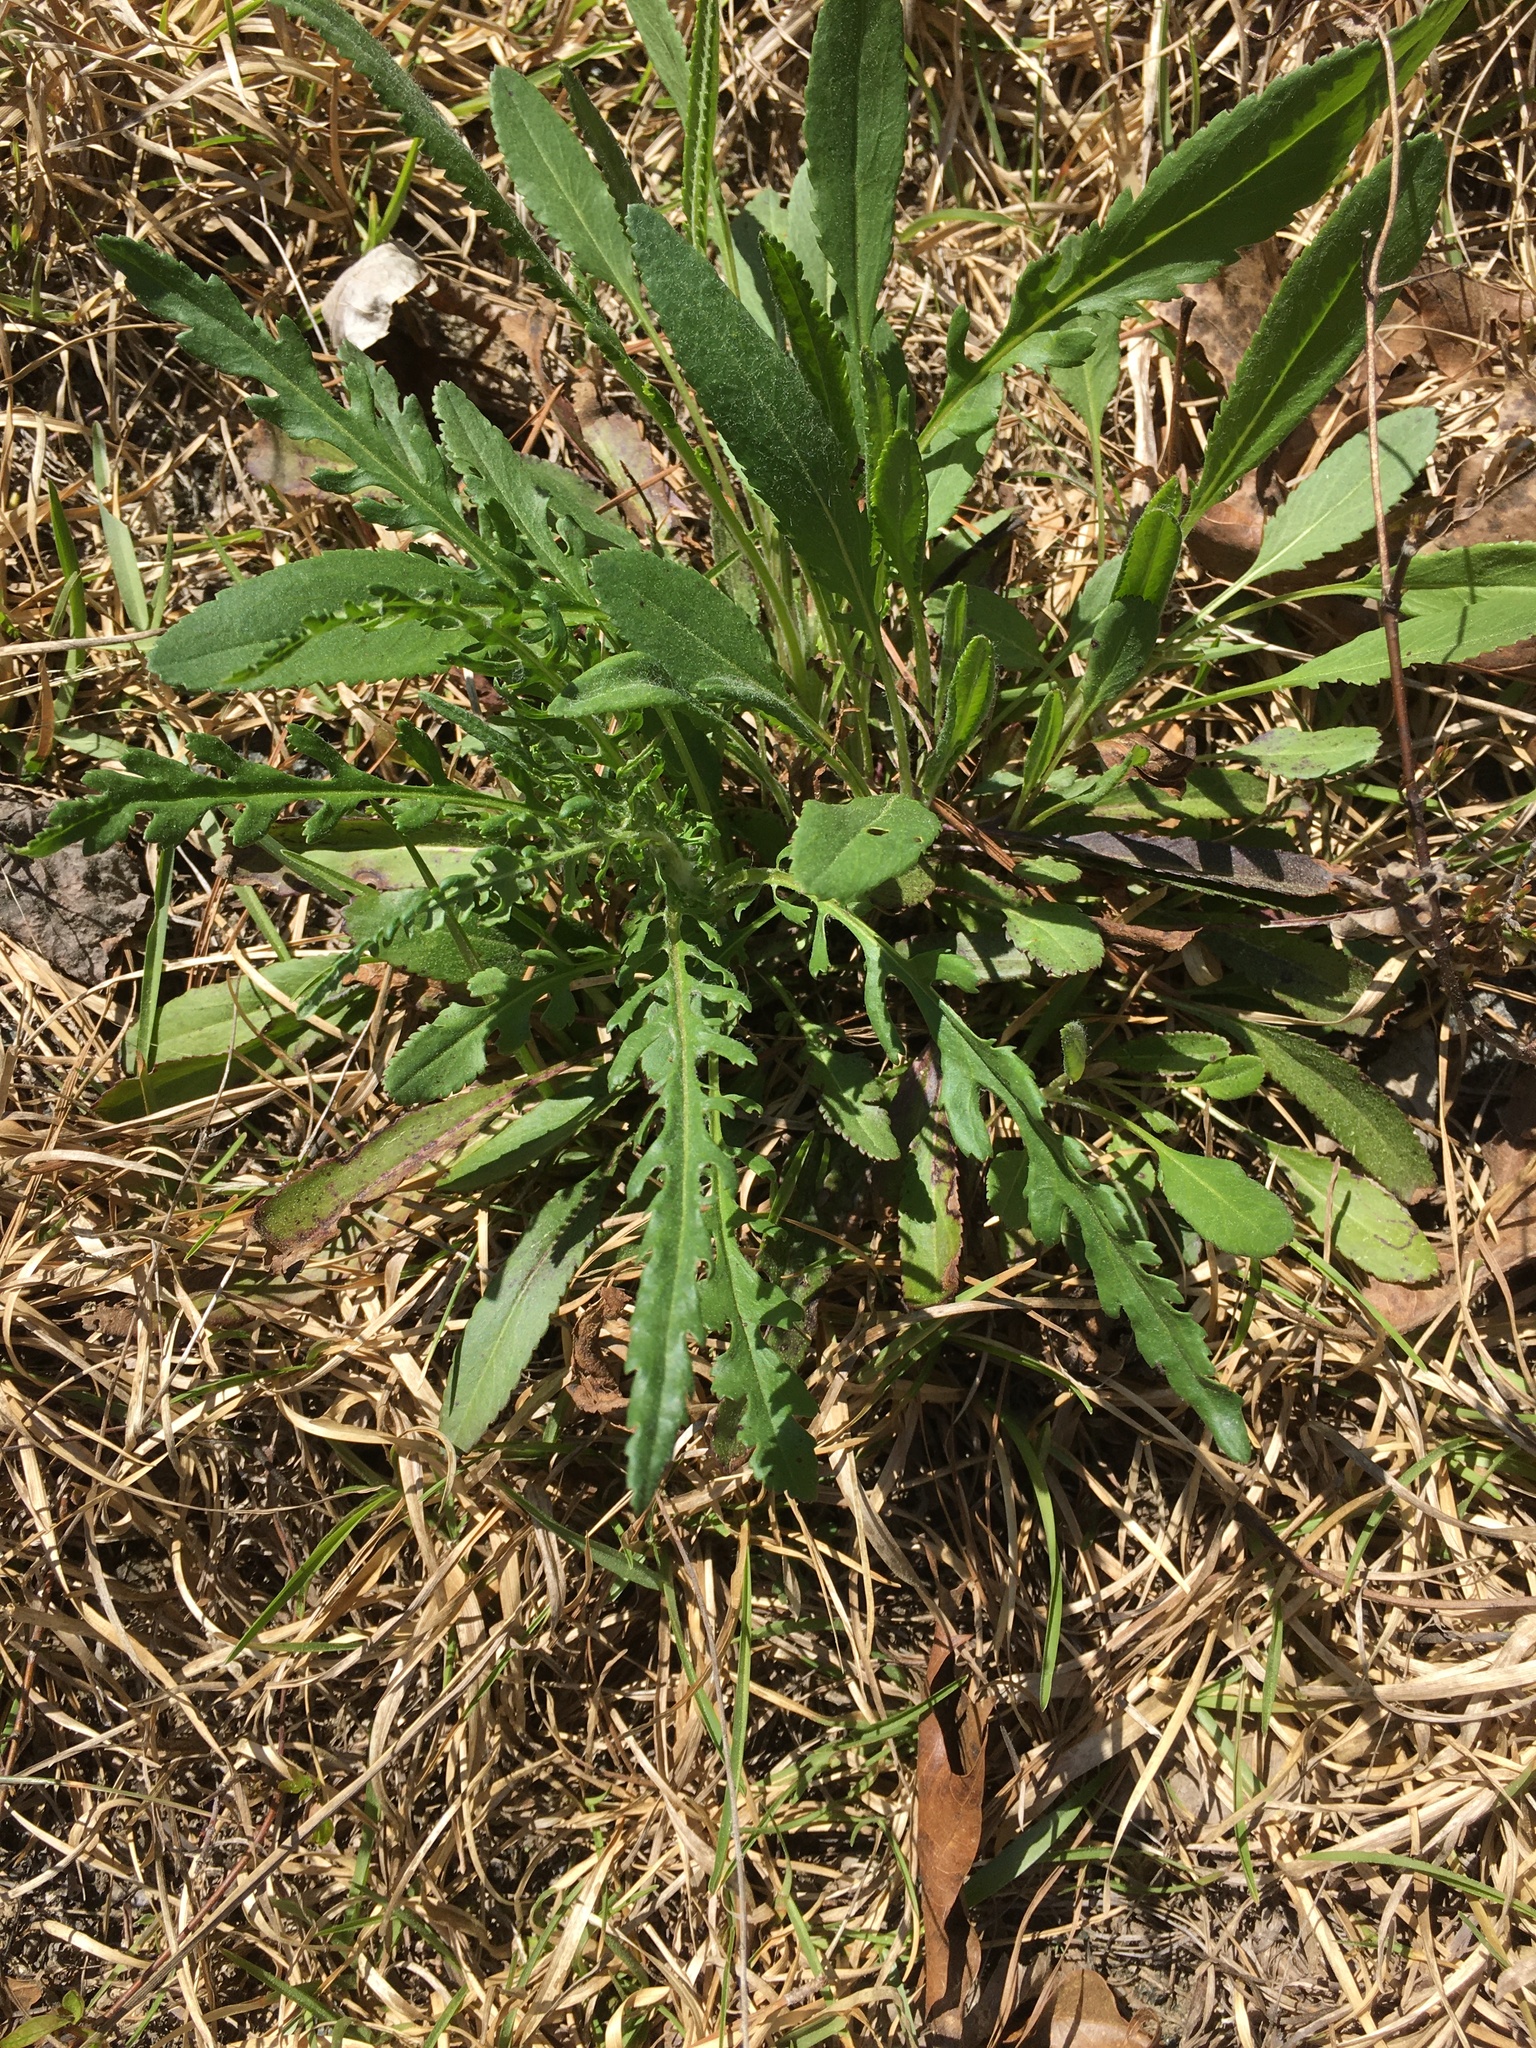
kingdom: Plantae
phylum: Tracheophyta
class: Magnoliopsida
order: Asterales
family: Asteraceae
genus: Packera
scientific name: Packera anonyma
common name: Small ragwort
